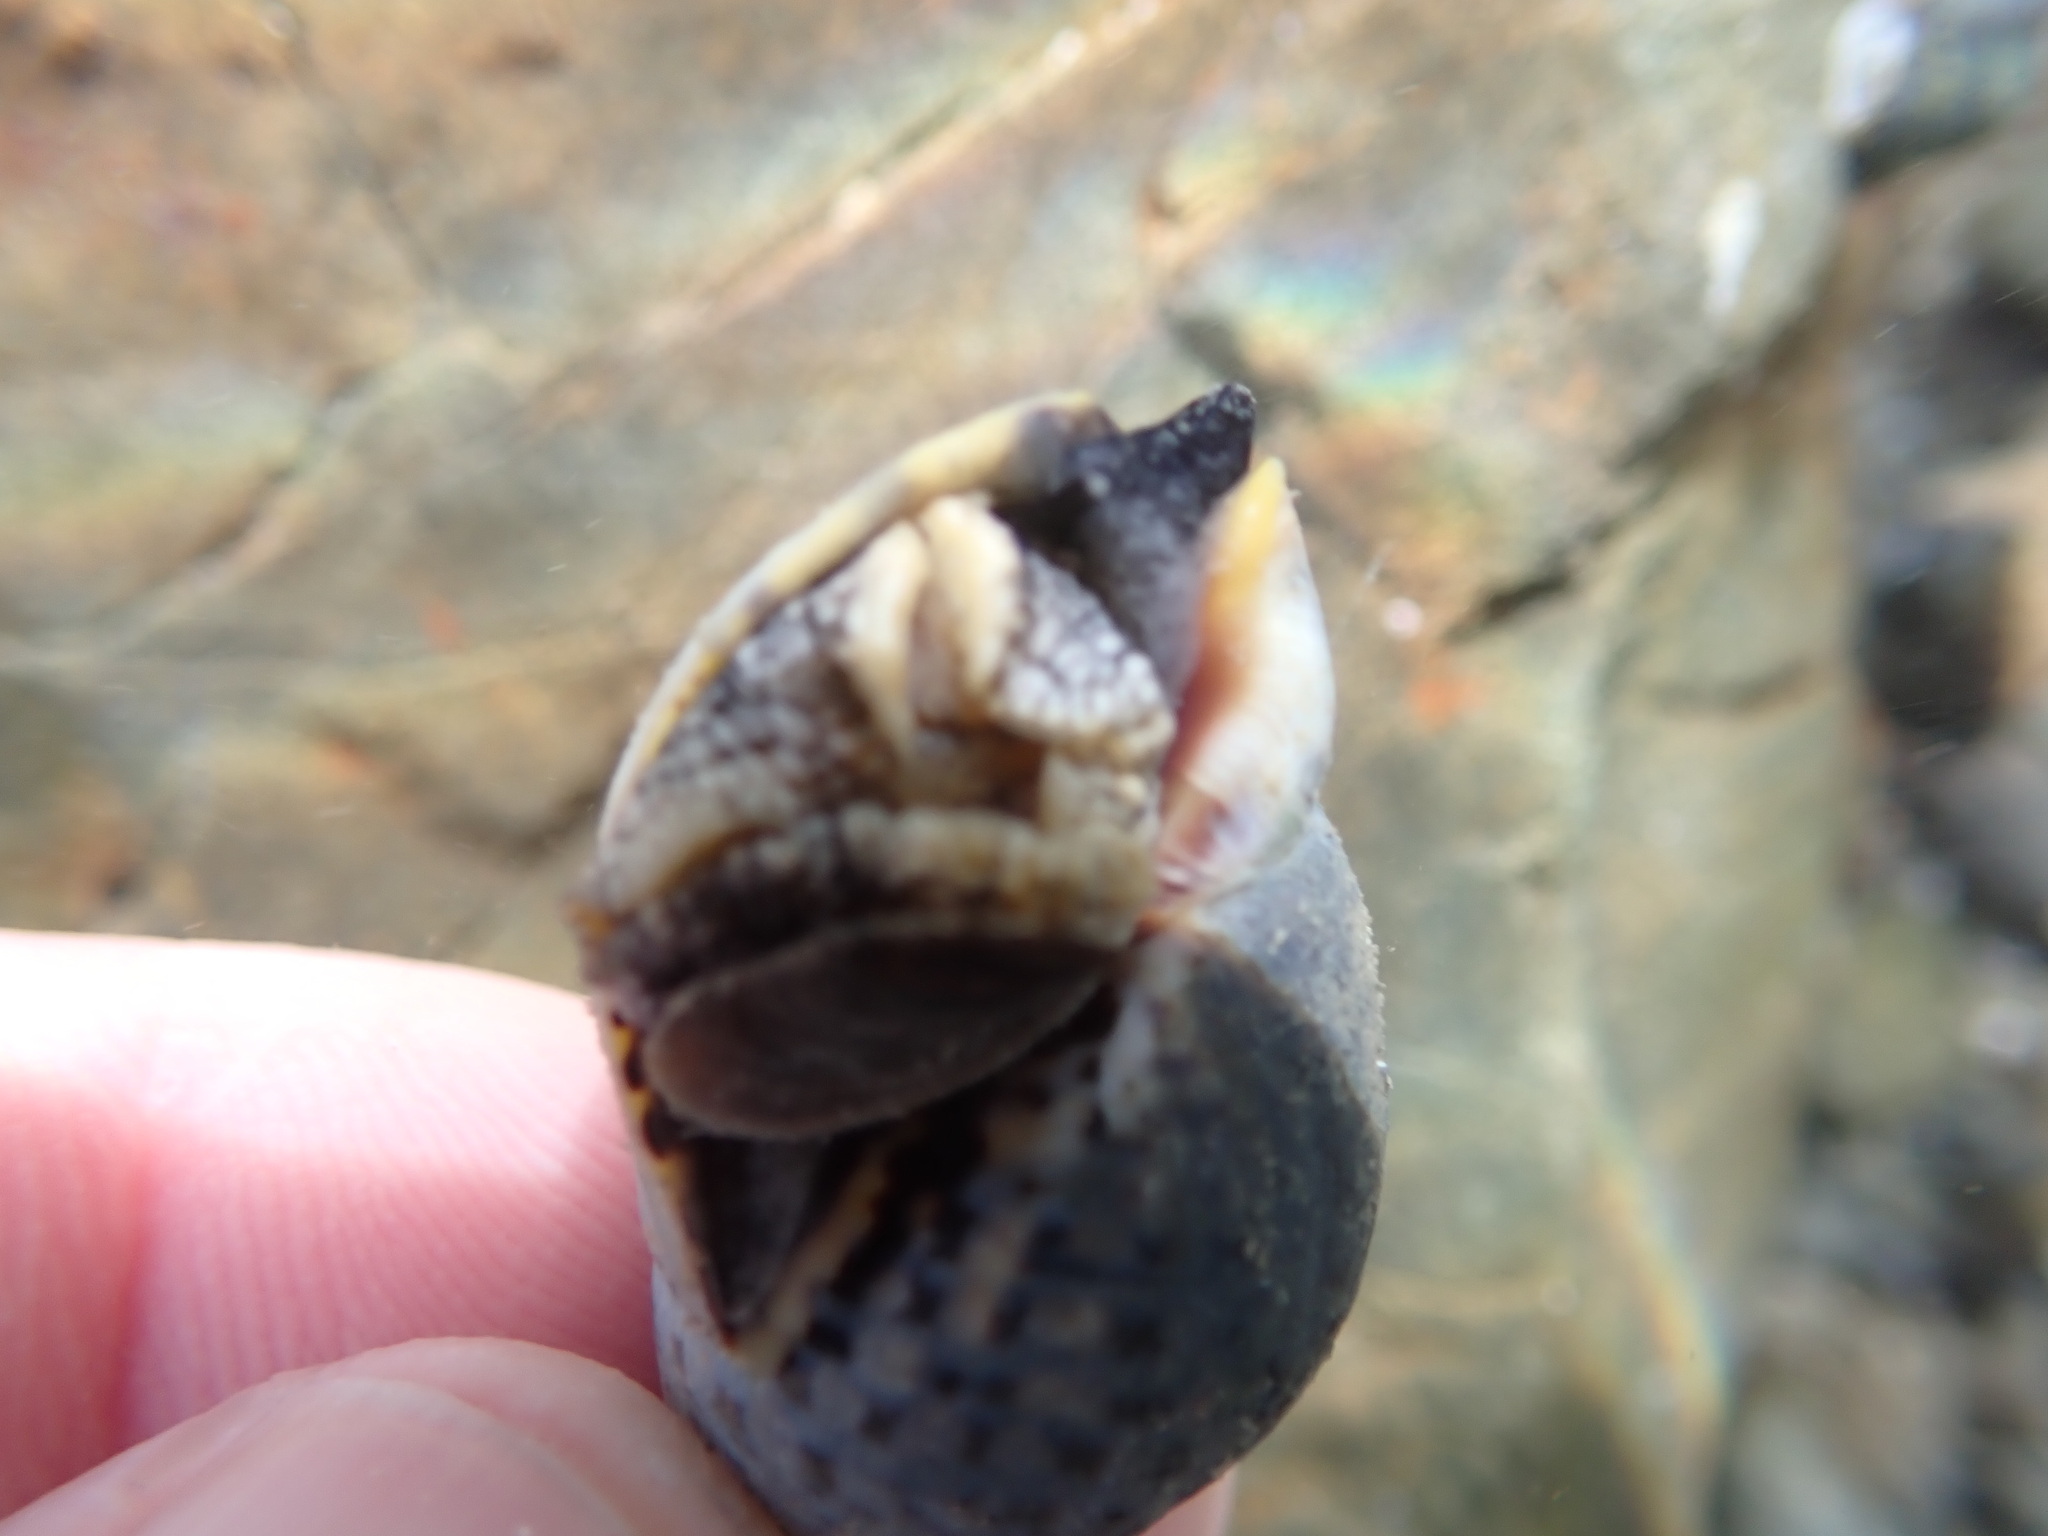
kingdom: Animalia
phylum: Mollusca
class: Gastropoda
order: Neogastropoda
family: Cominellidae
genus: Cominella
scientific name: Cominella maculosa
